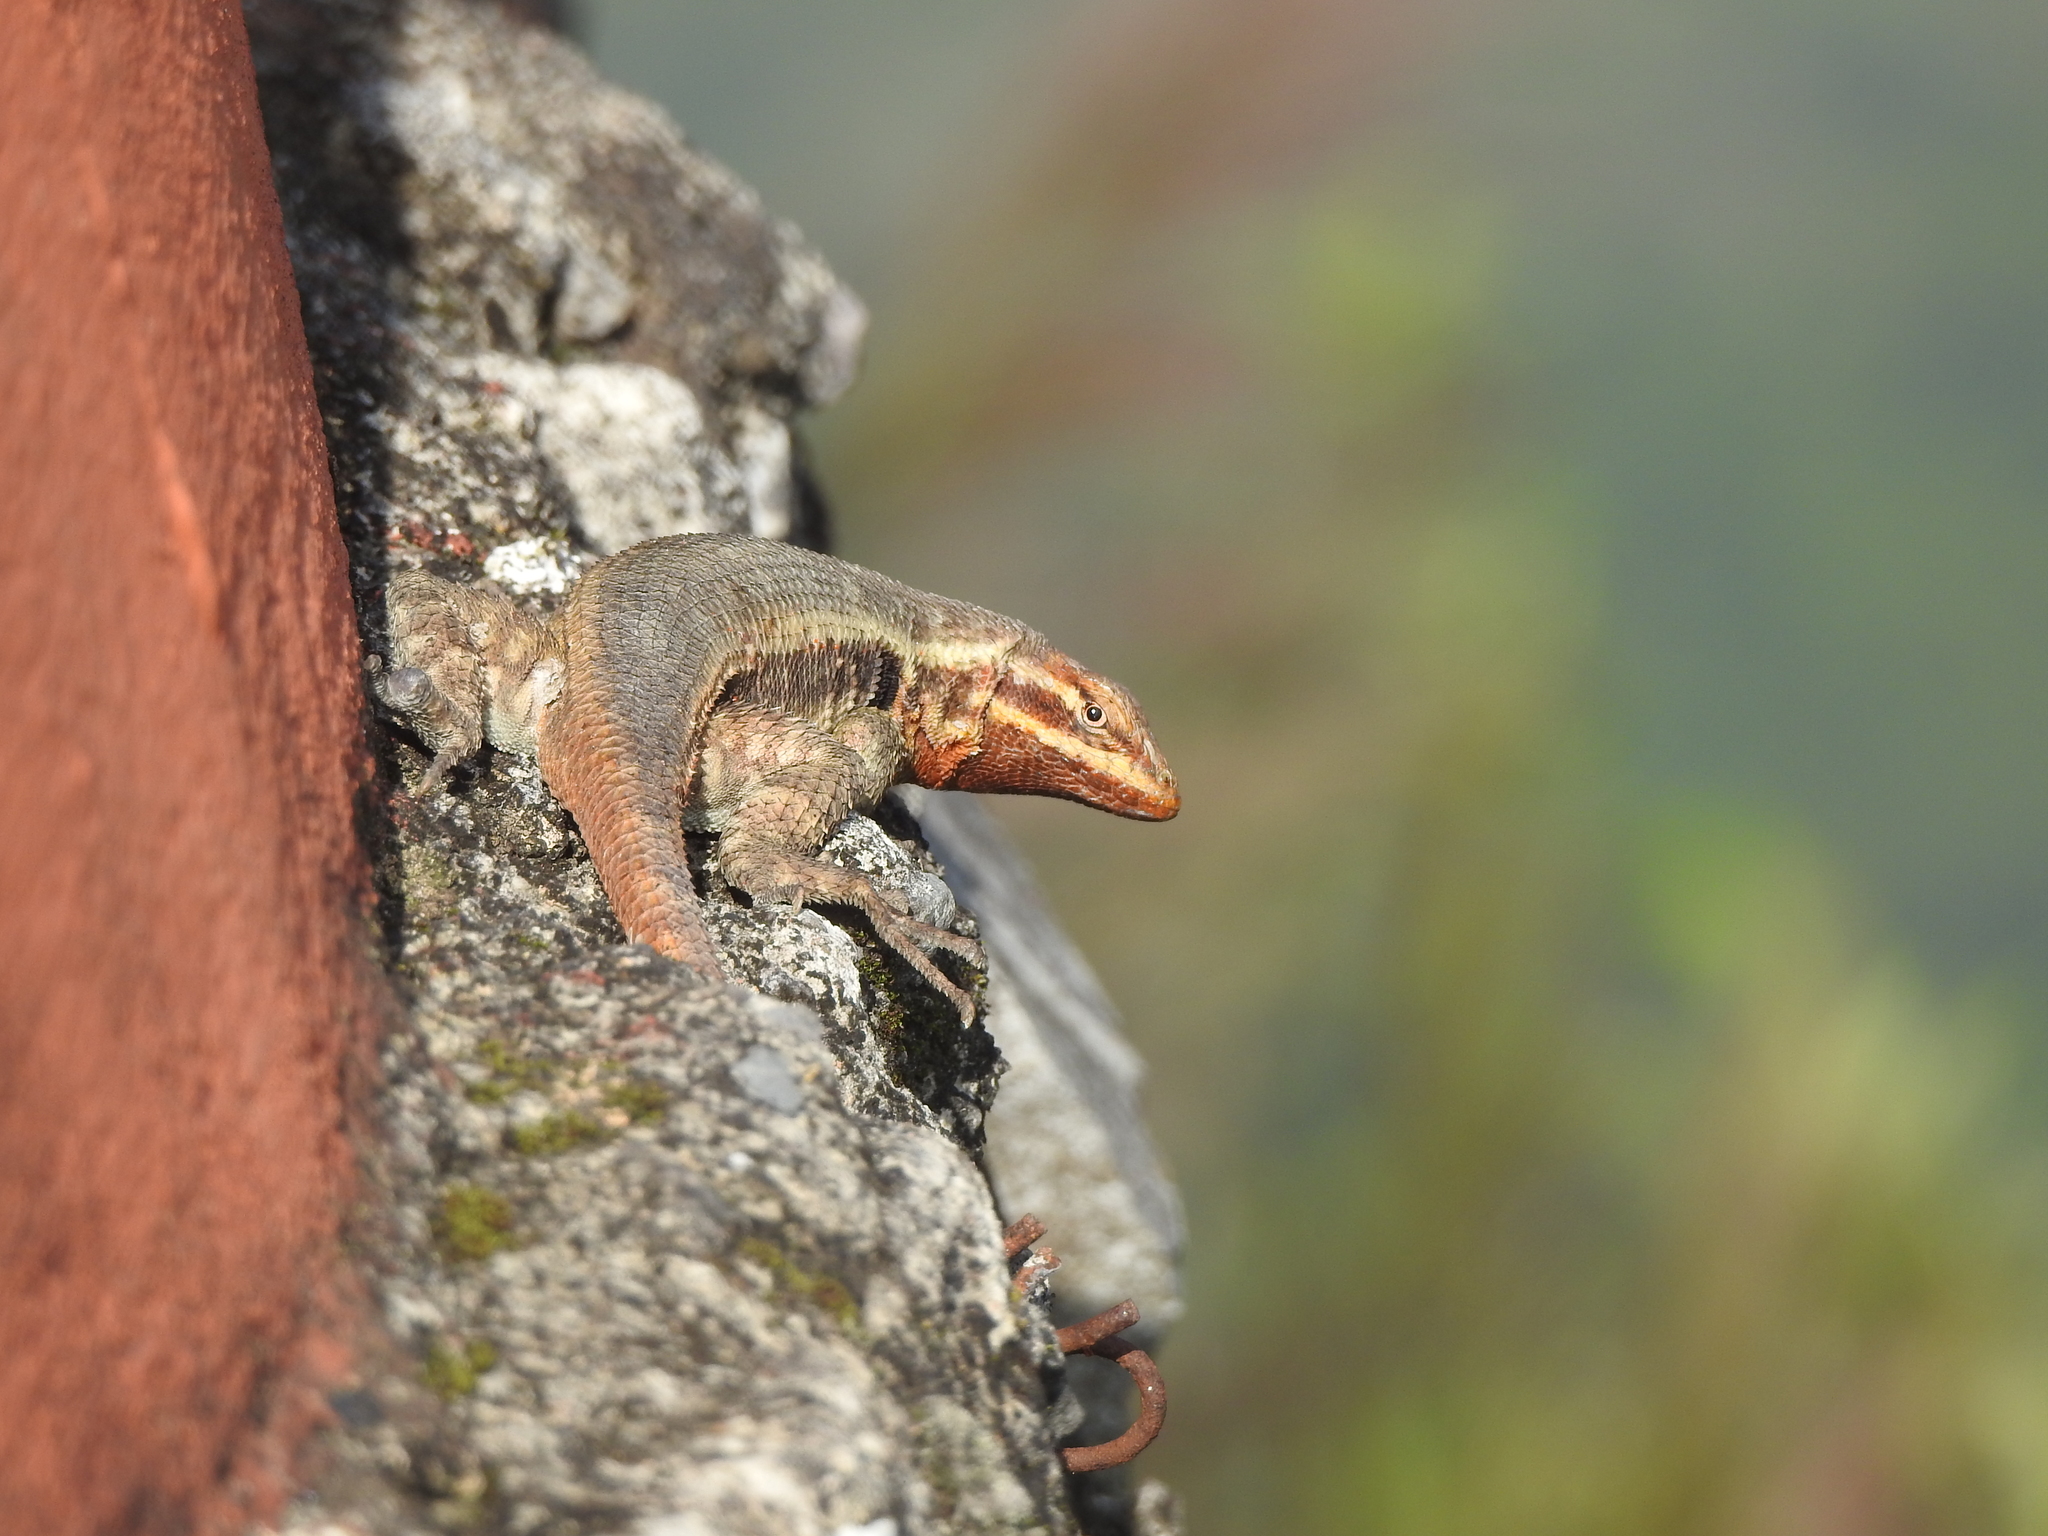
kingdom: Animalia
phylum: Chordata
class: Squamata
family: Phrynosomatidae
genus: Sceloporus
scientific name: Sceloporus variabilis
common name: Rosebelly lizard
